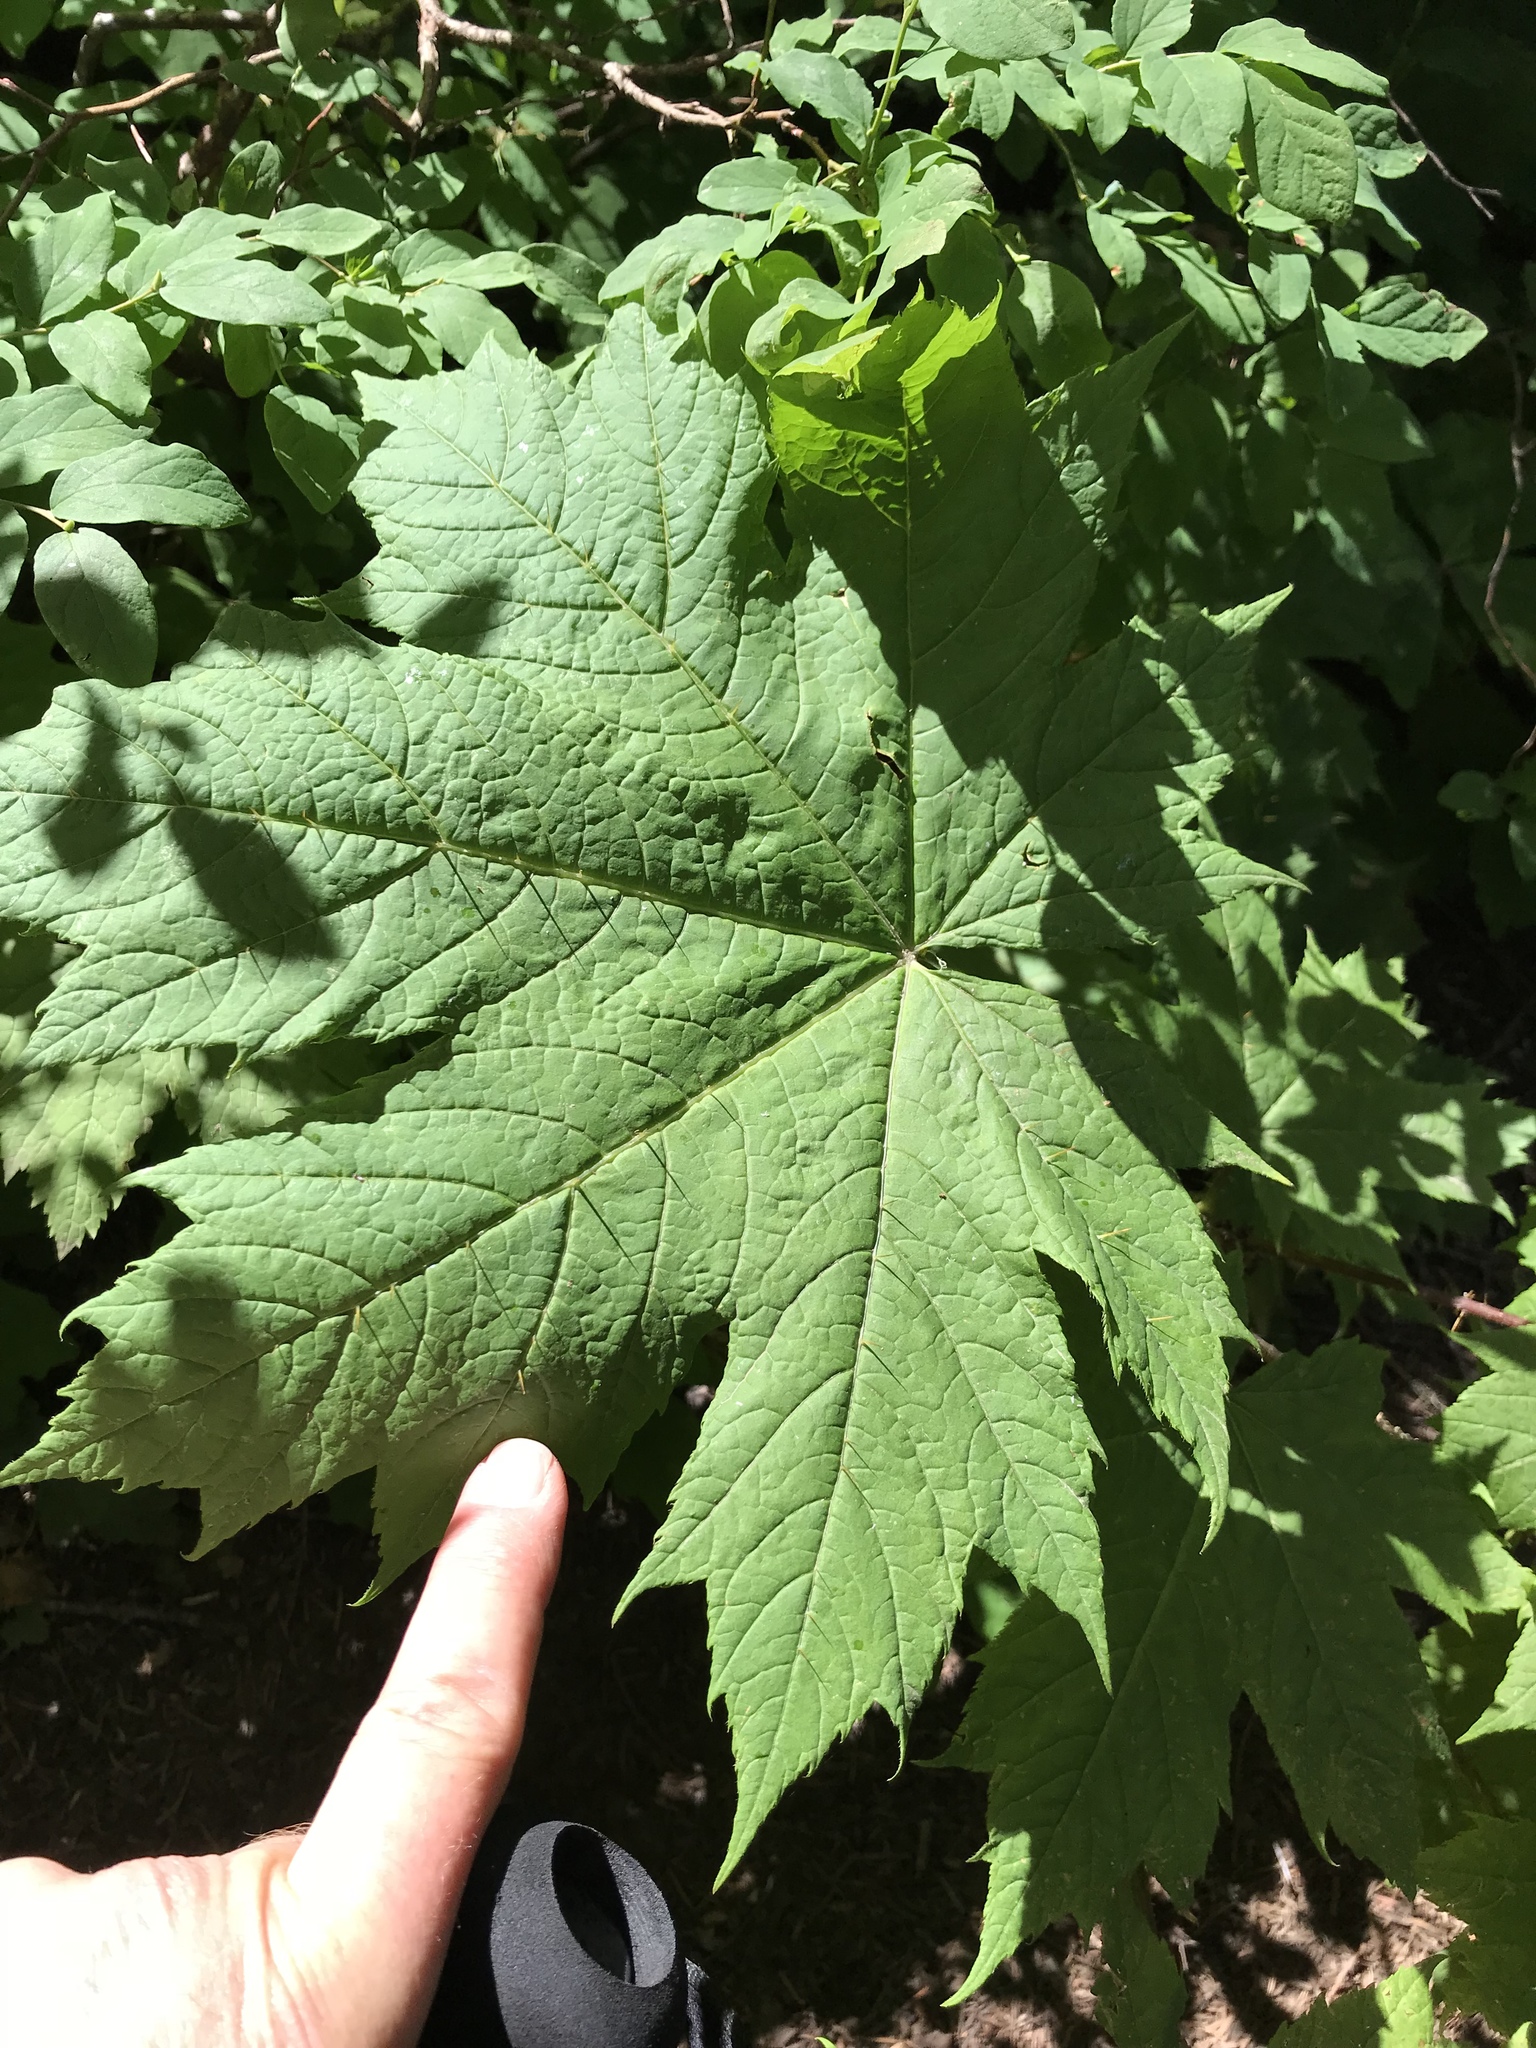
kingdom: Plantae
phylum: Tracheophyta
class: Magnoliopsida
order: Apiales
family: Araliaceae
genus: Oplopanax
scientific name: Oplopanax horridus
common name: Devil's walking-stick
